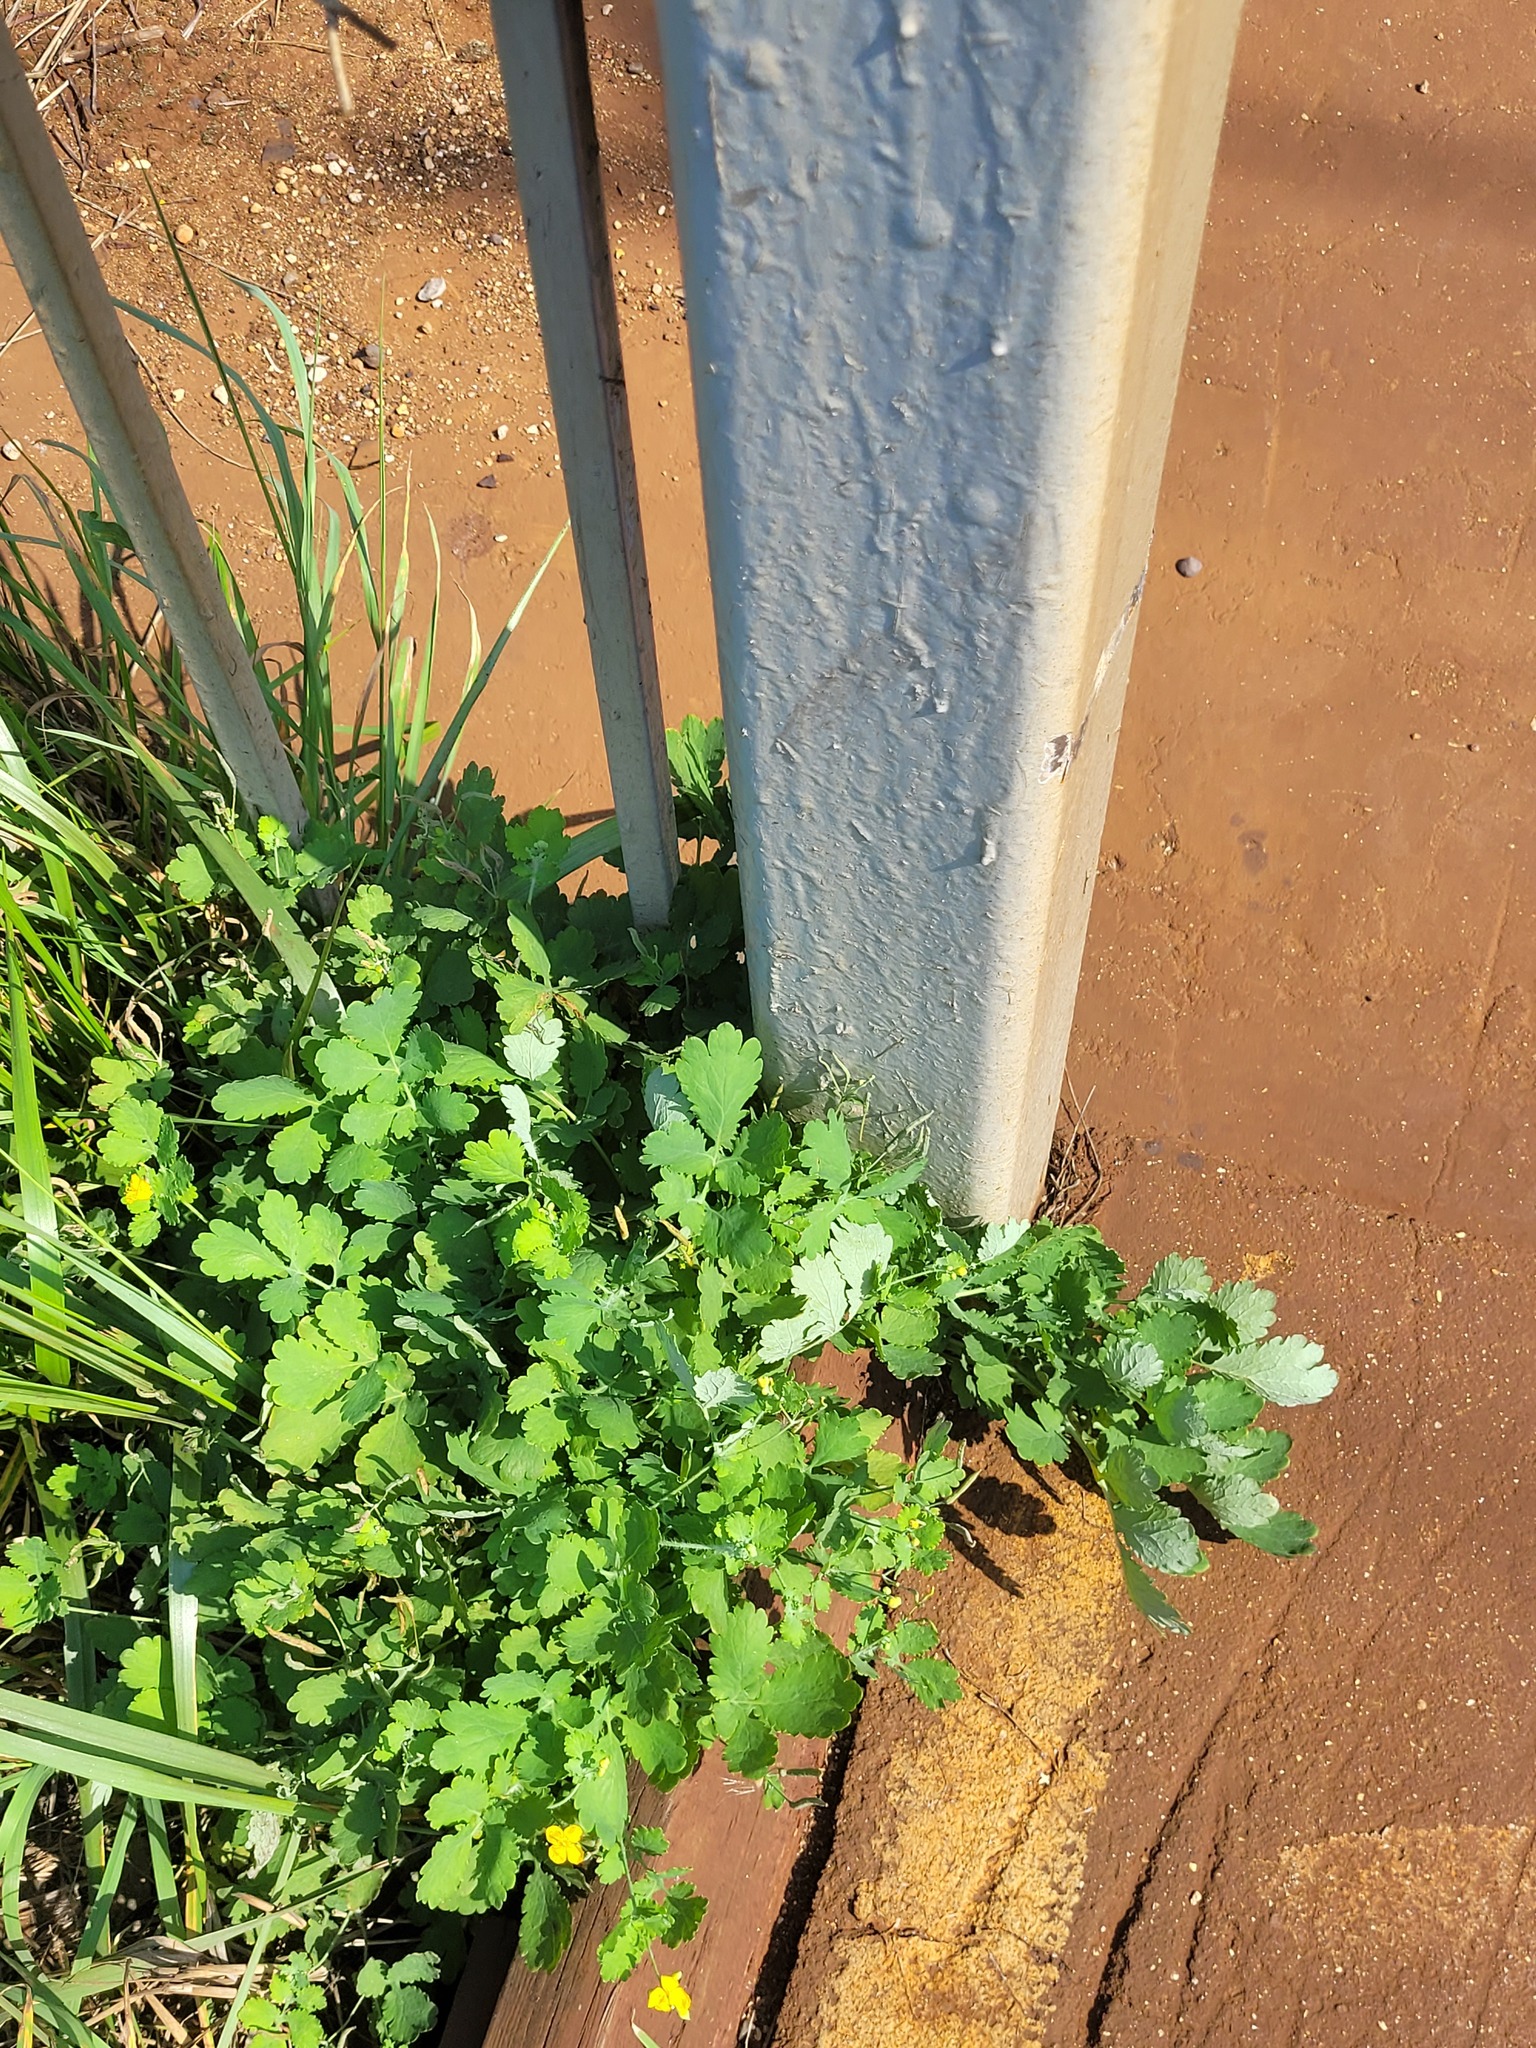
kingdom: Plantae
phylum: Tracheophyta
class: Magnoliopsida
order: Ranunculales
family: Papaveraceae
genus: Chelidonium
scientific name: Chelidonium majus
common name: Greater celandine
